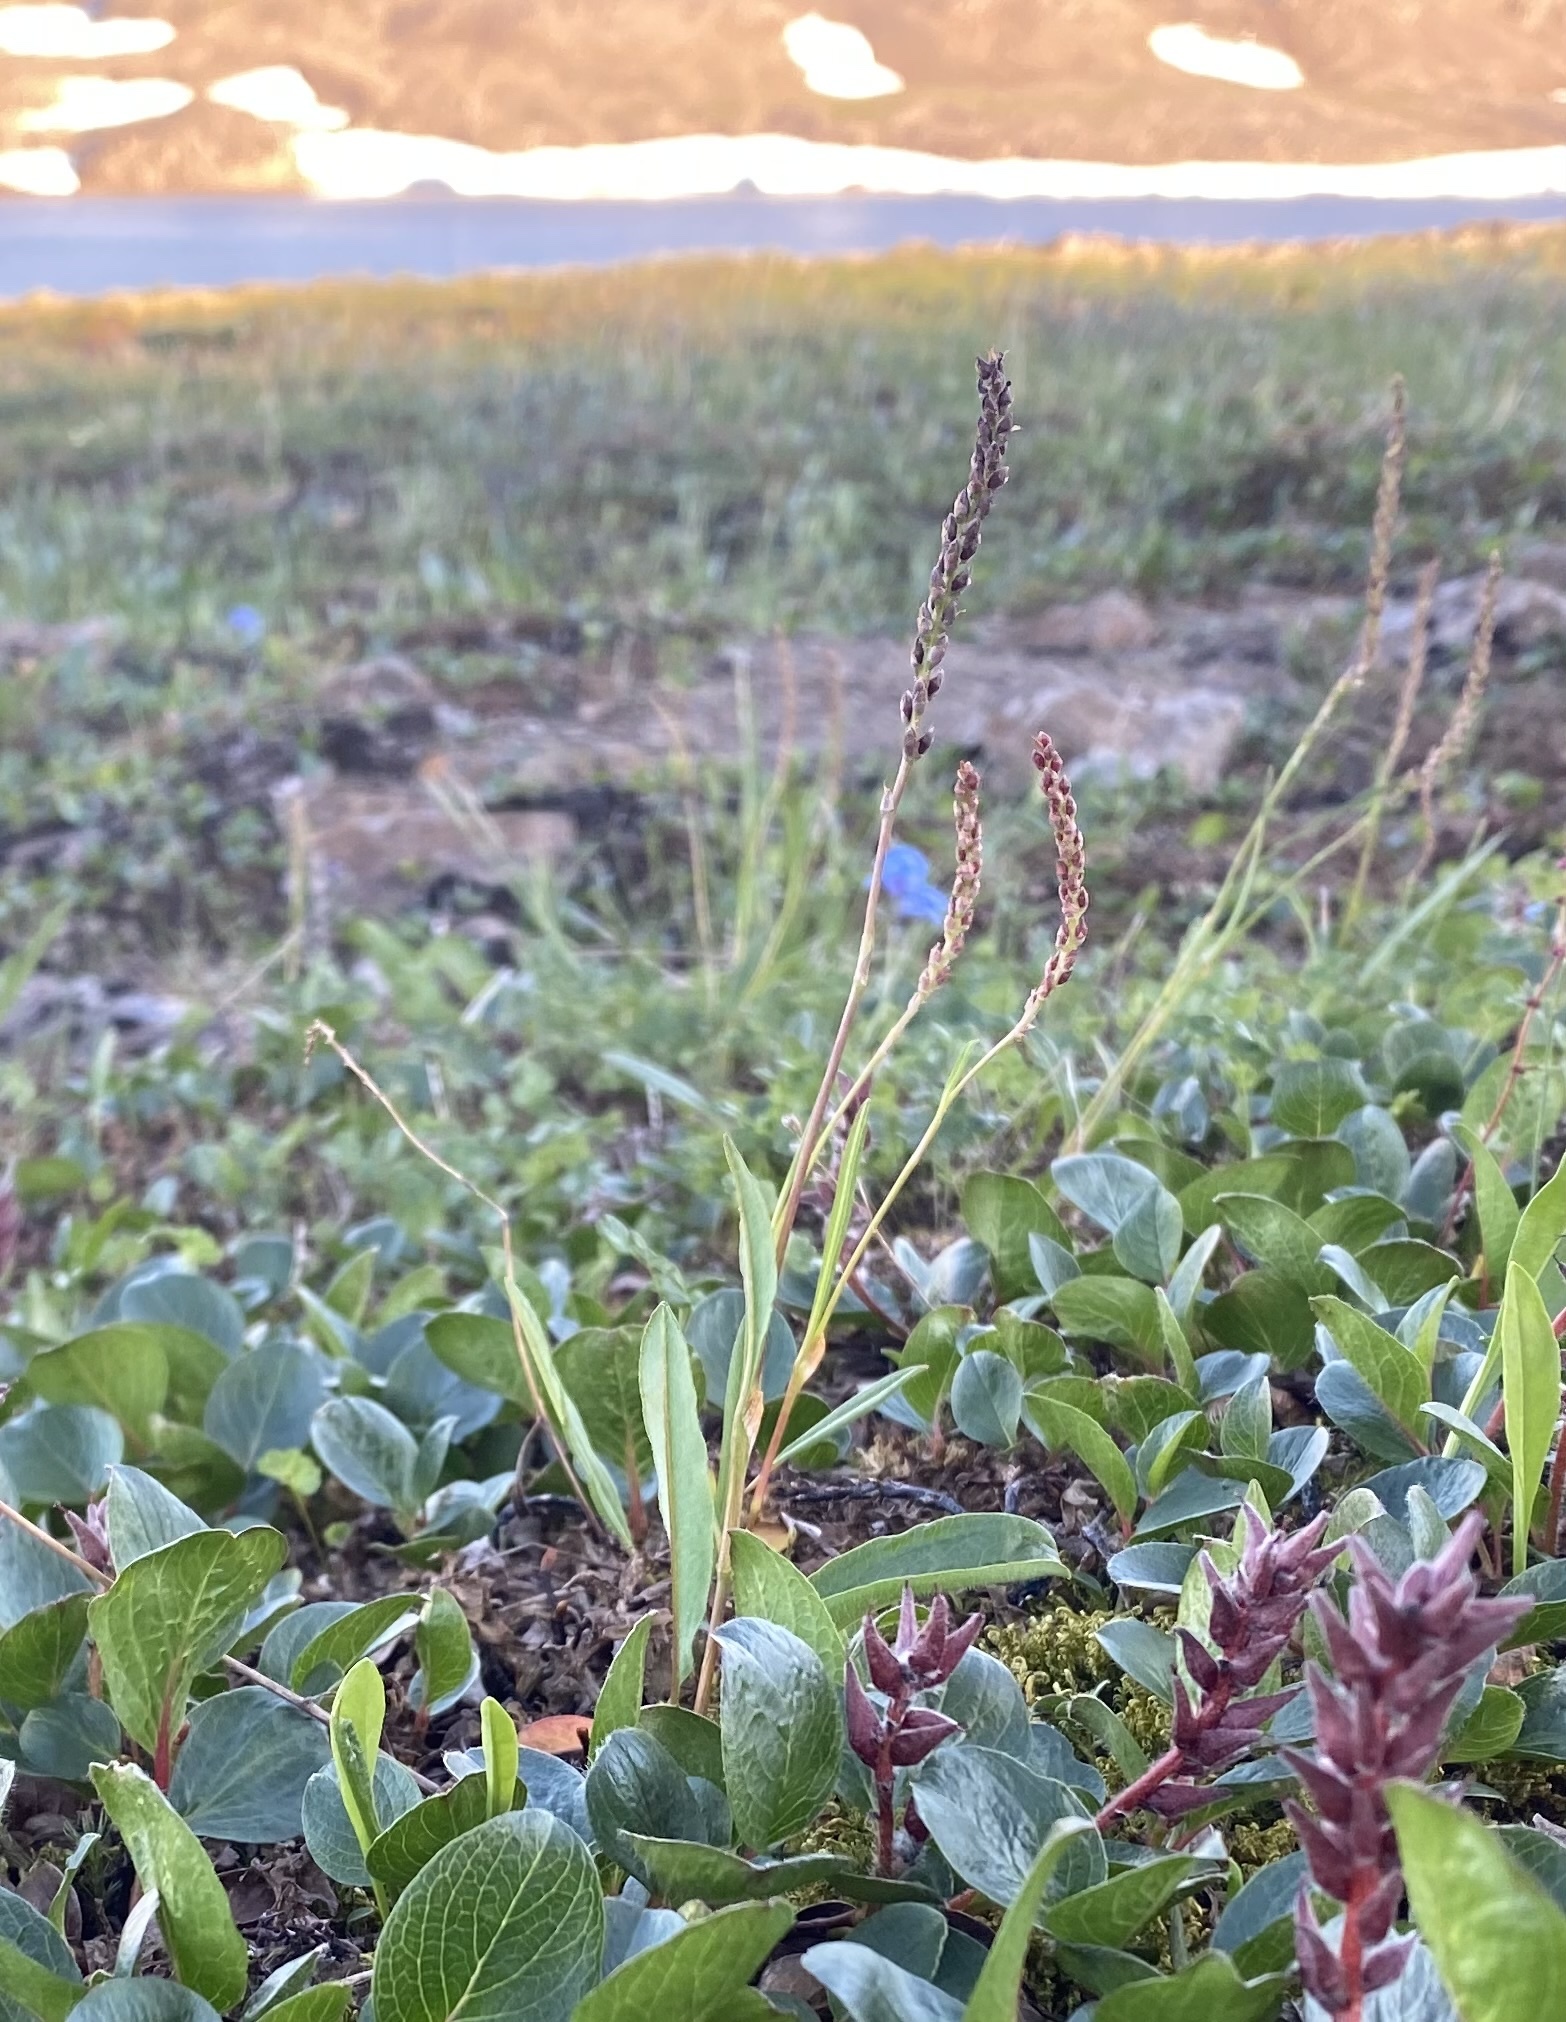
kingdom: Plantae
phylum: Tracheophyta
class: Magnoliopsida
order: Caryophyllales
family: Polygonaceae
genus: Bistorta
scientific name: Bistorta vivipara
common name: Alpine bistort
